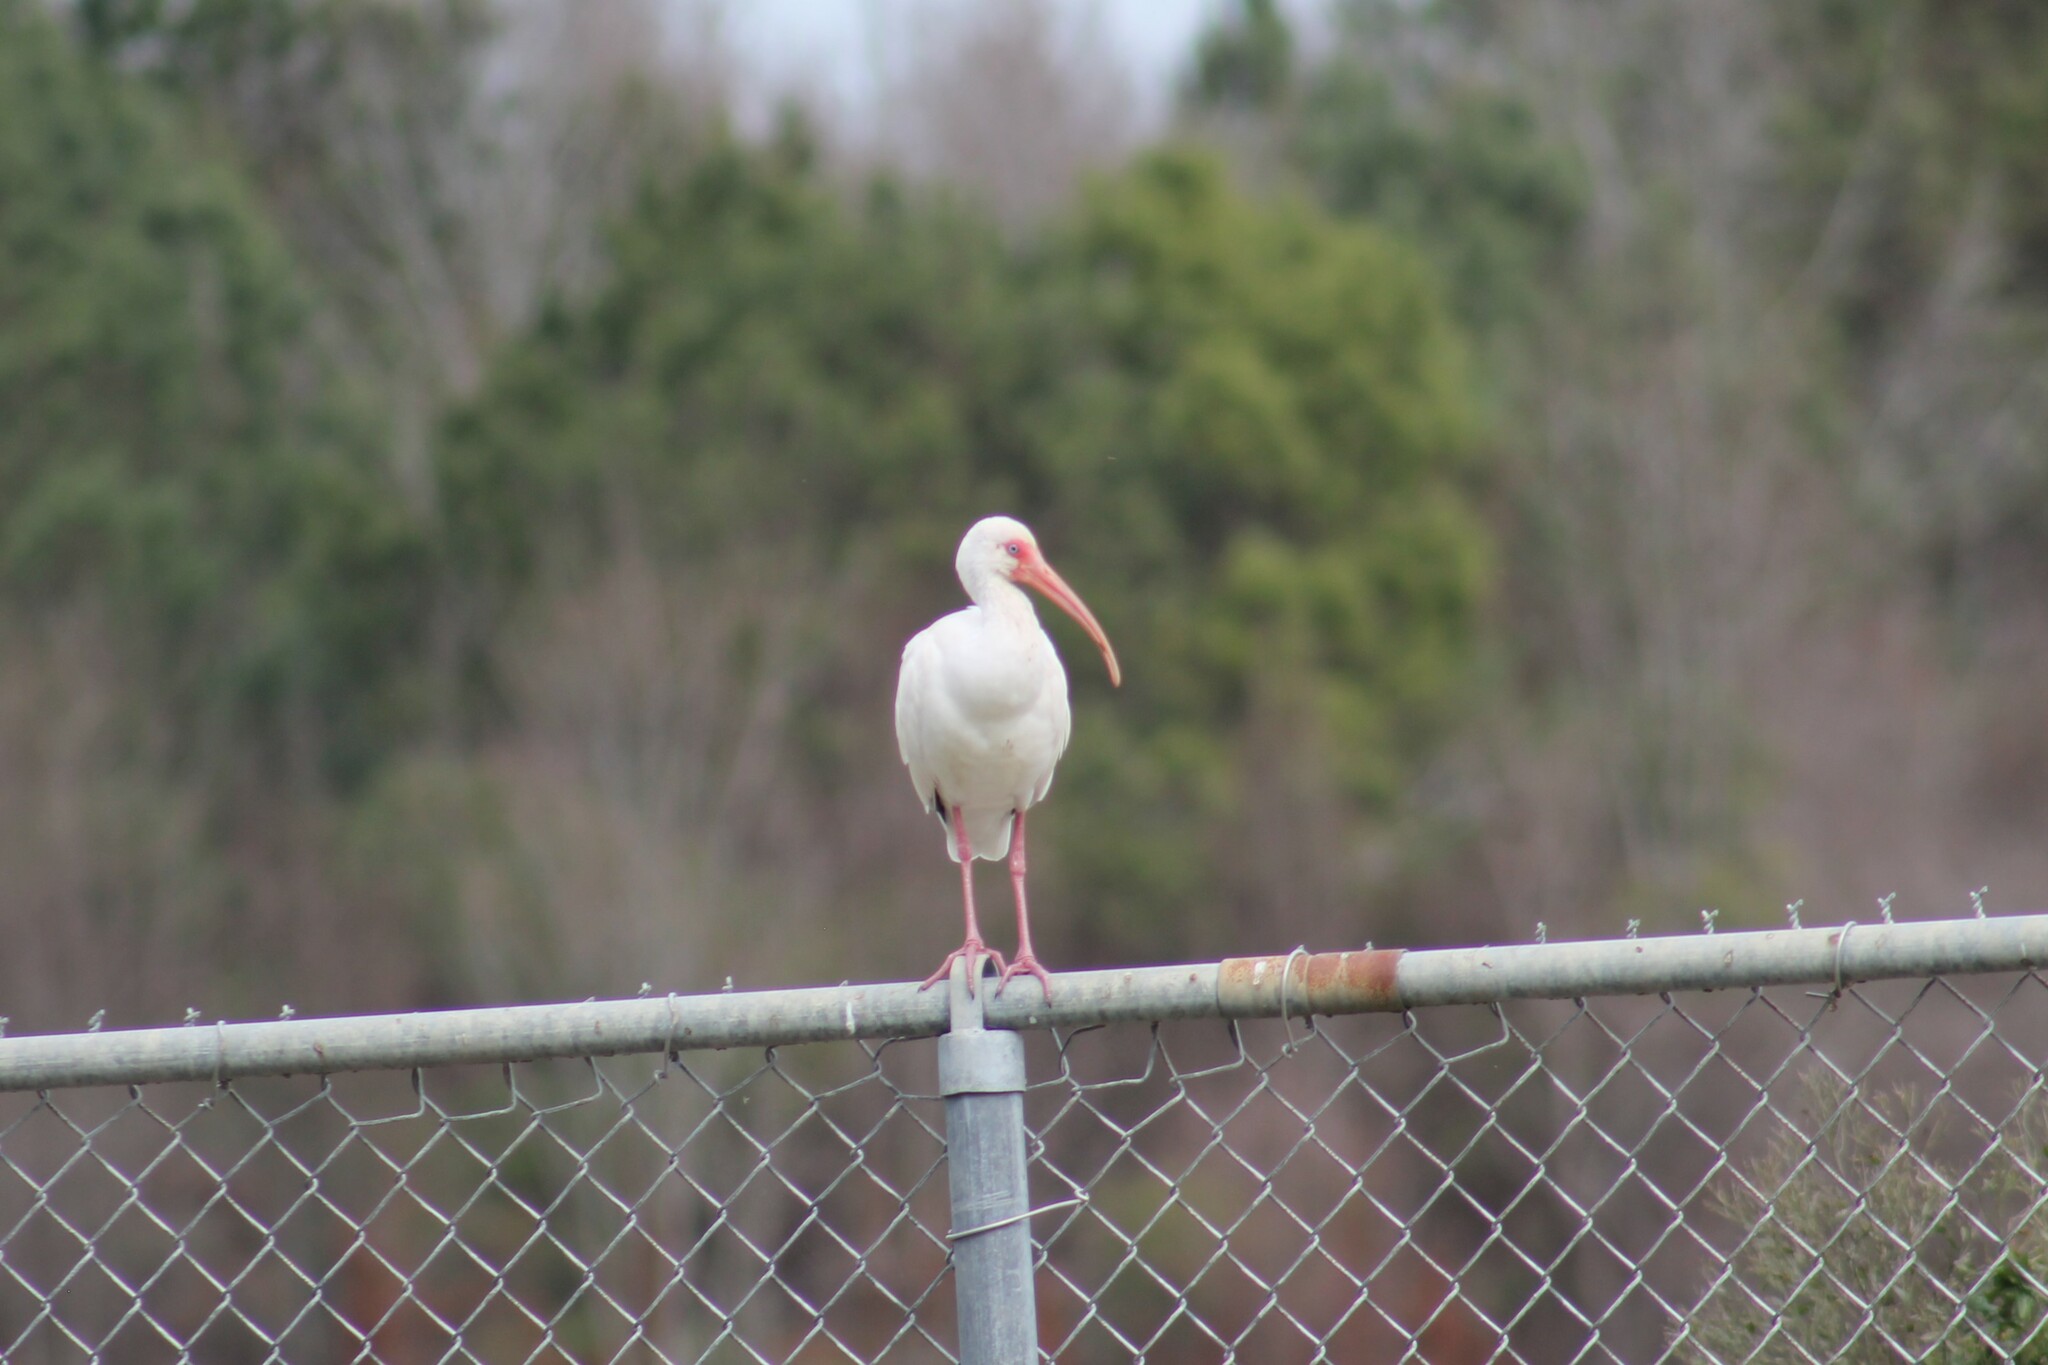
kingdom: Animalia
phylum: Chordata
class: Aves
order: Pelecaniformes
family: Threskiornithidae
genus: Eudocimus
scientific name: Eudocimus albus
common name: White ibis
